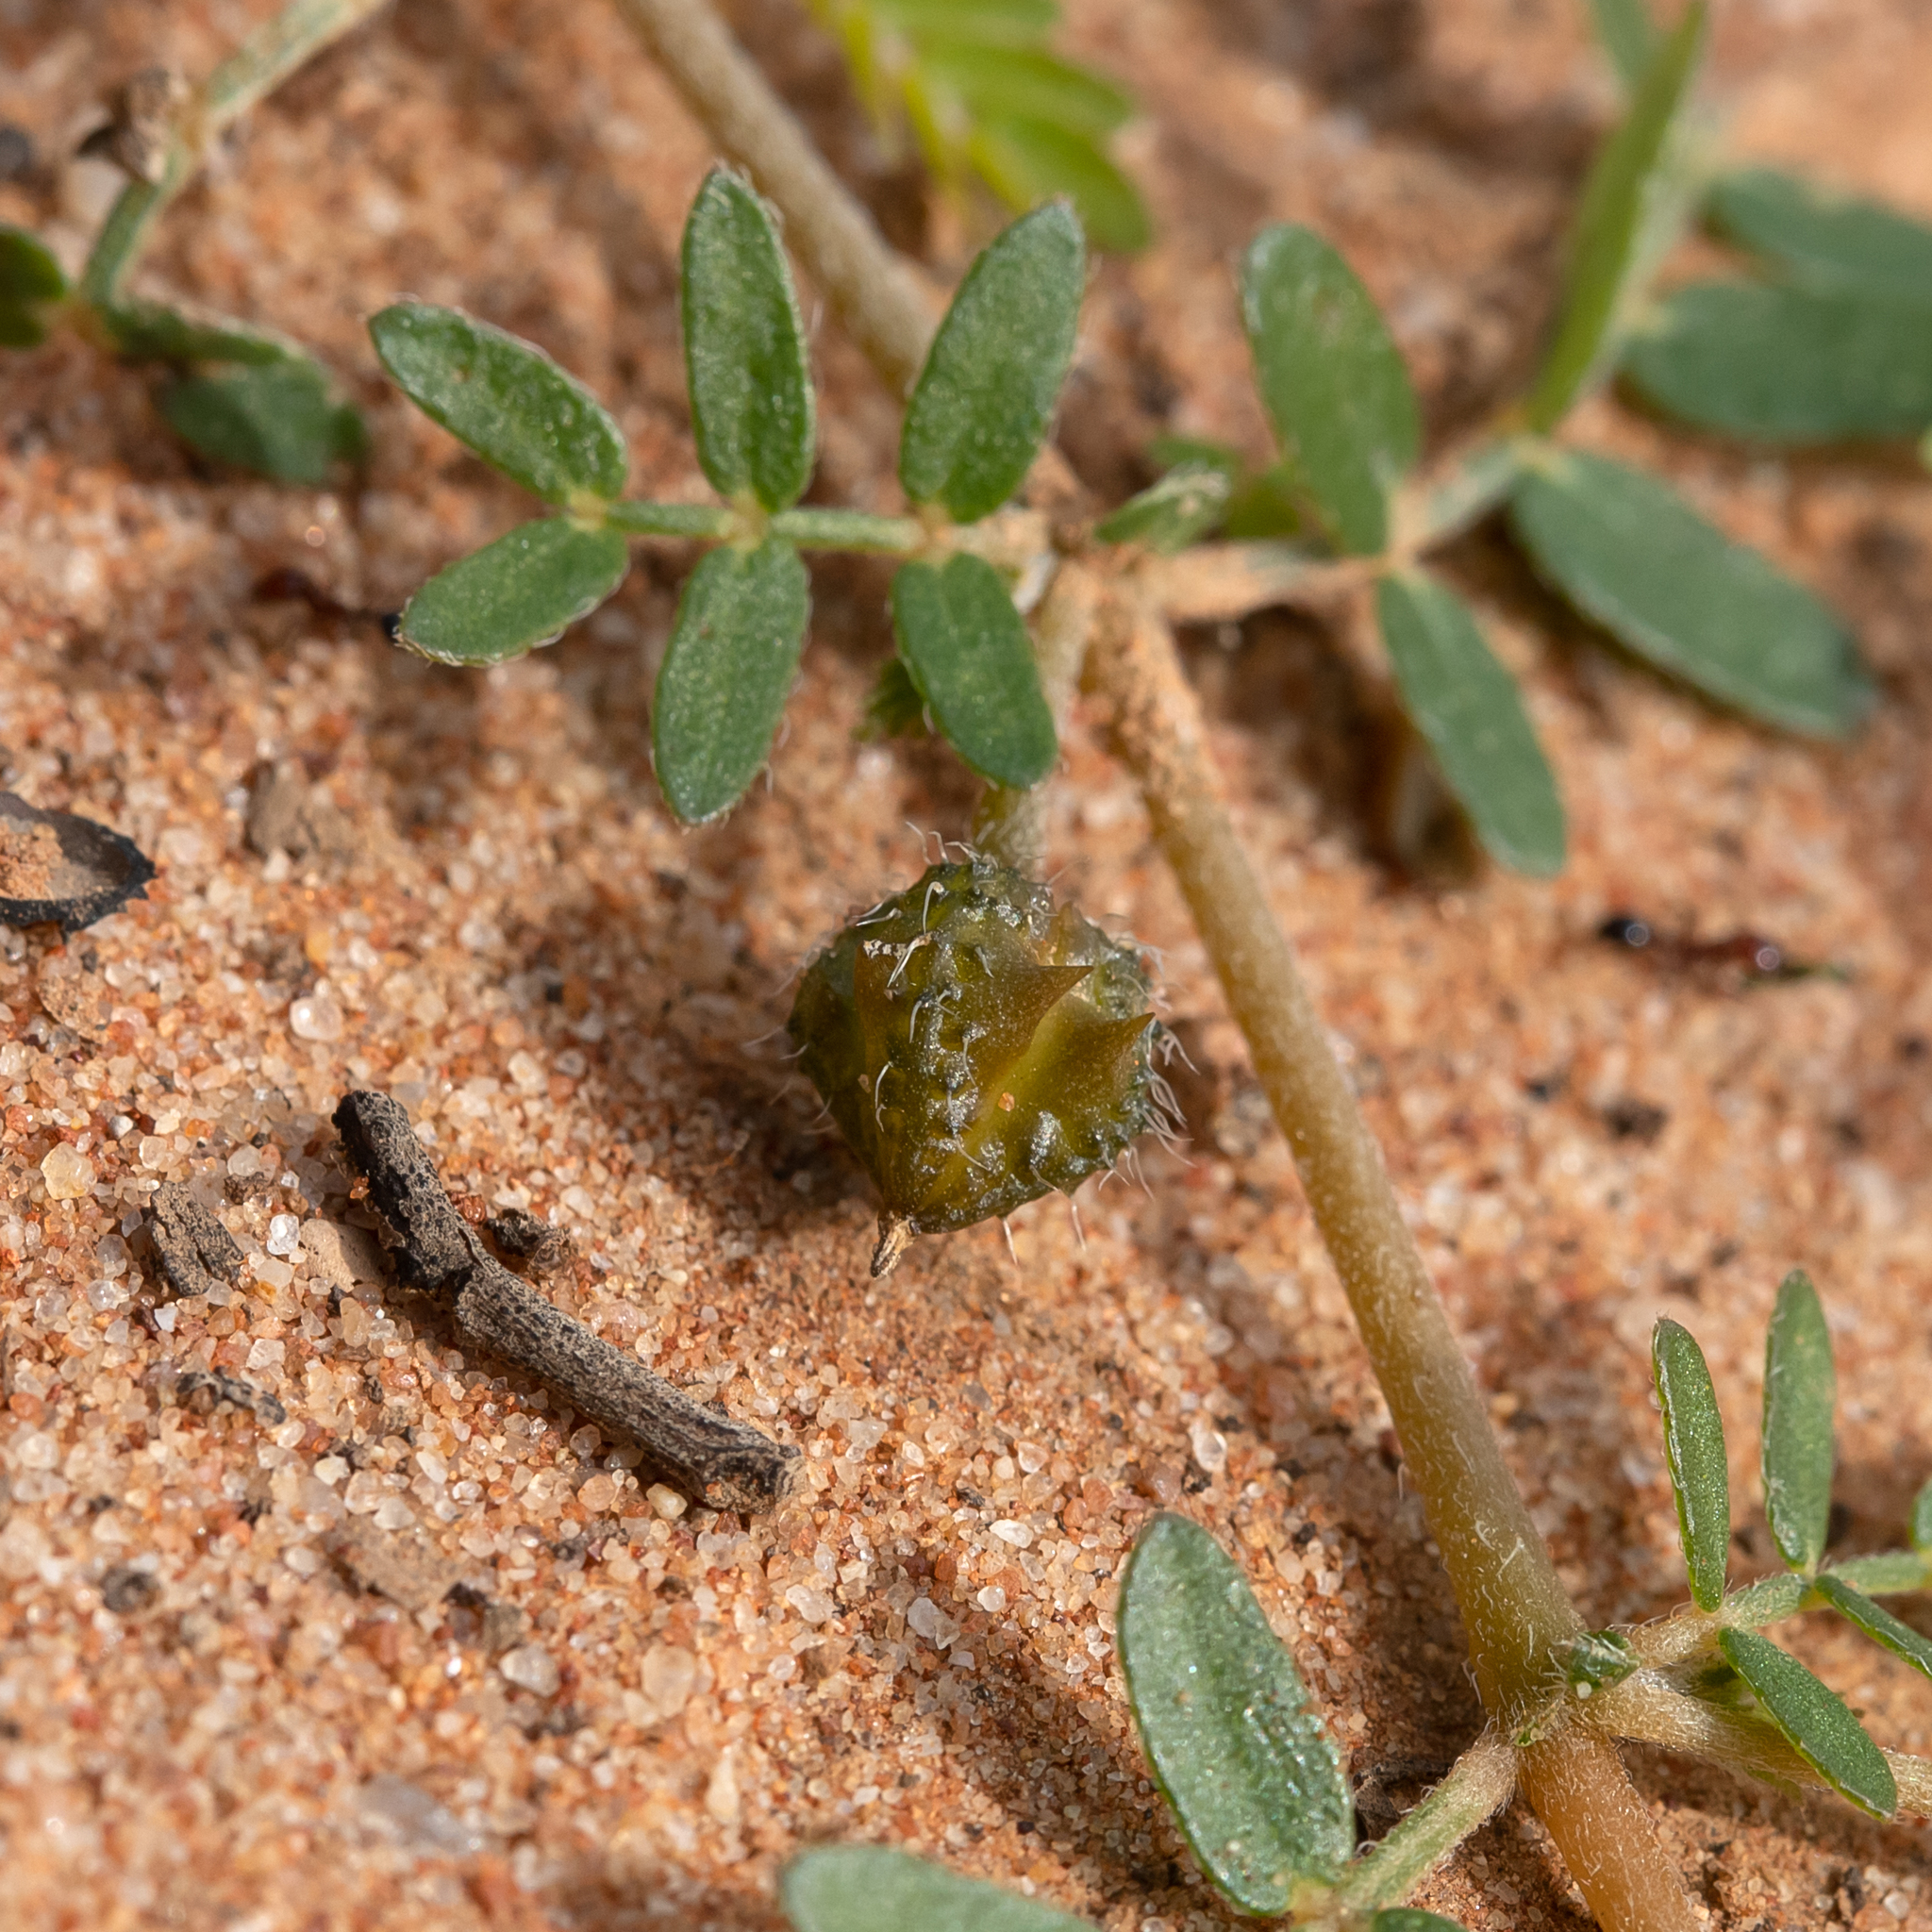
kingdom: Plantae
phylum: Tracheophyta
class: Magnoliopsida
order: Zygophyllales
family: Zygophyllaceae
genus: Tribulus
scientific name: Tribulus terrestris
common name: Puncturevine
